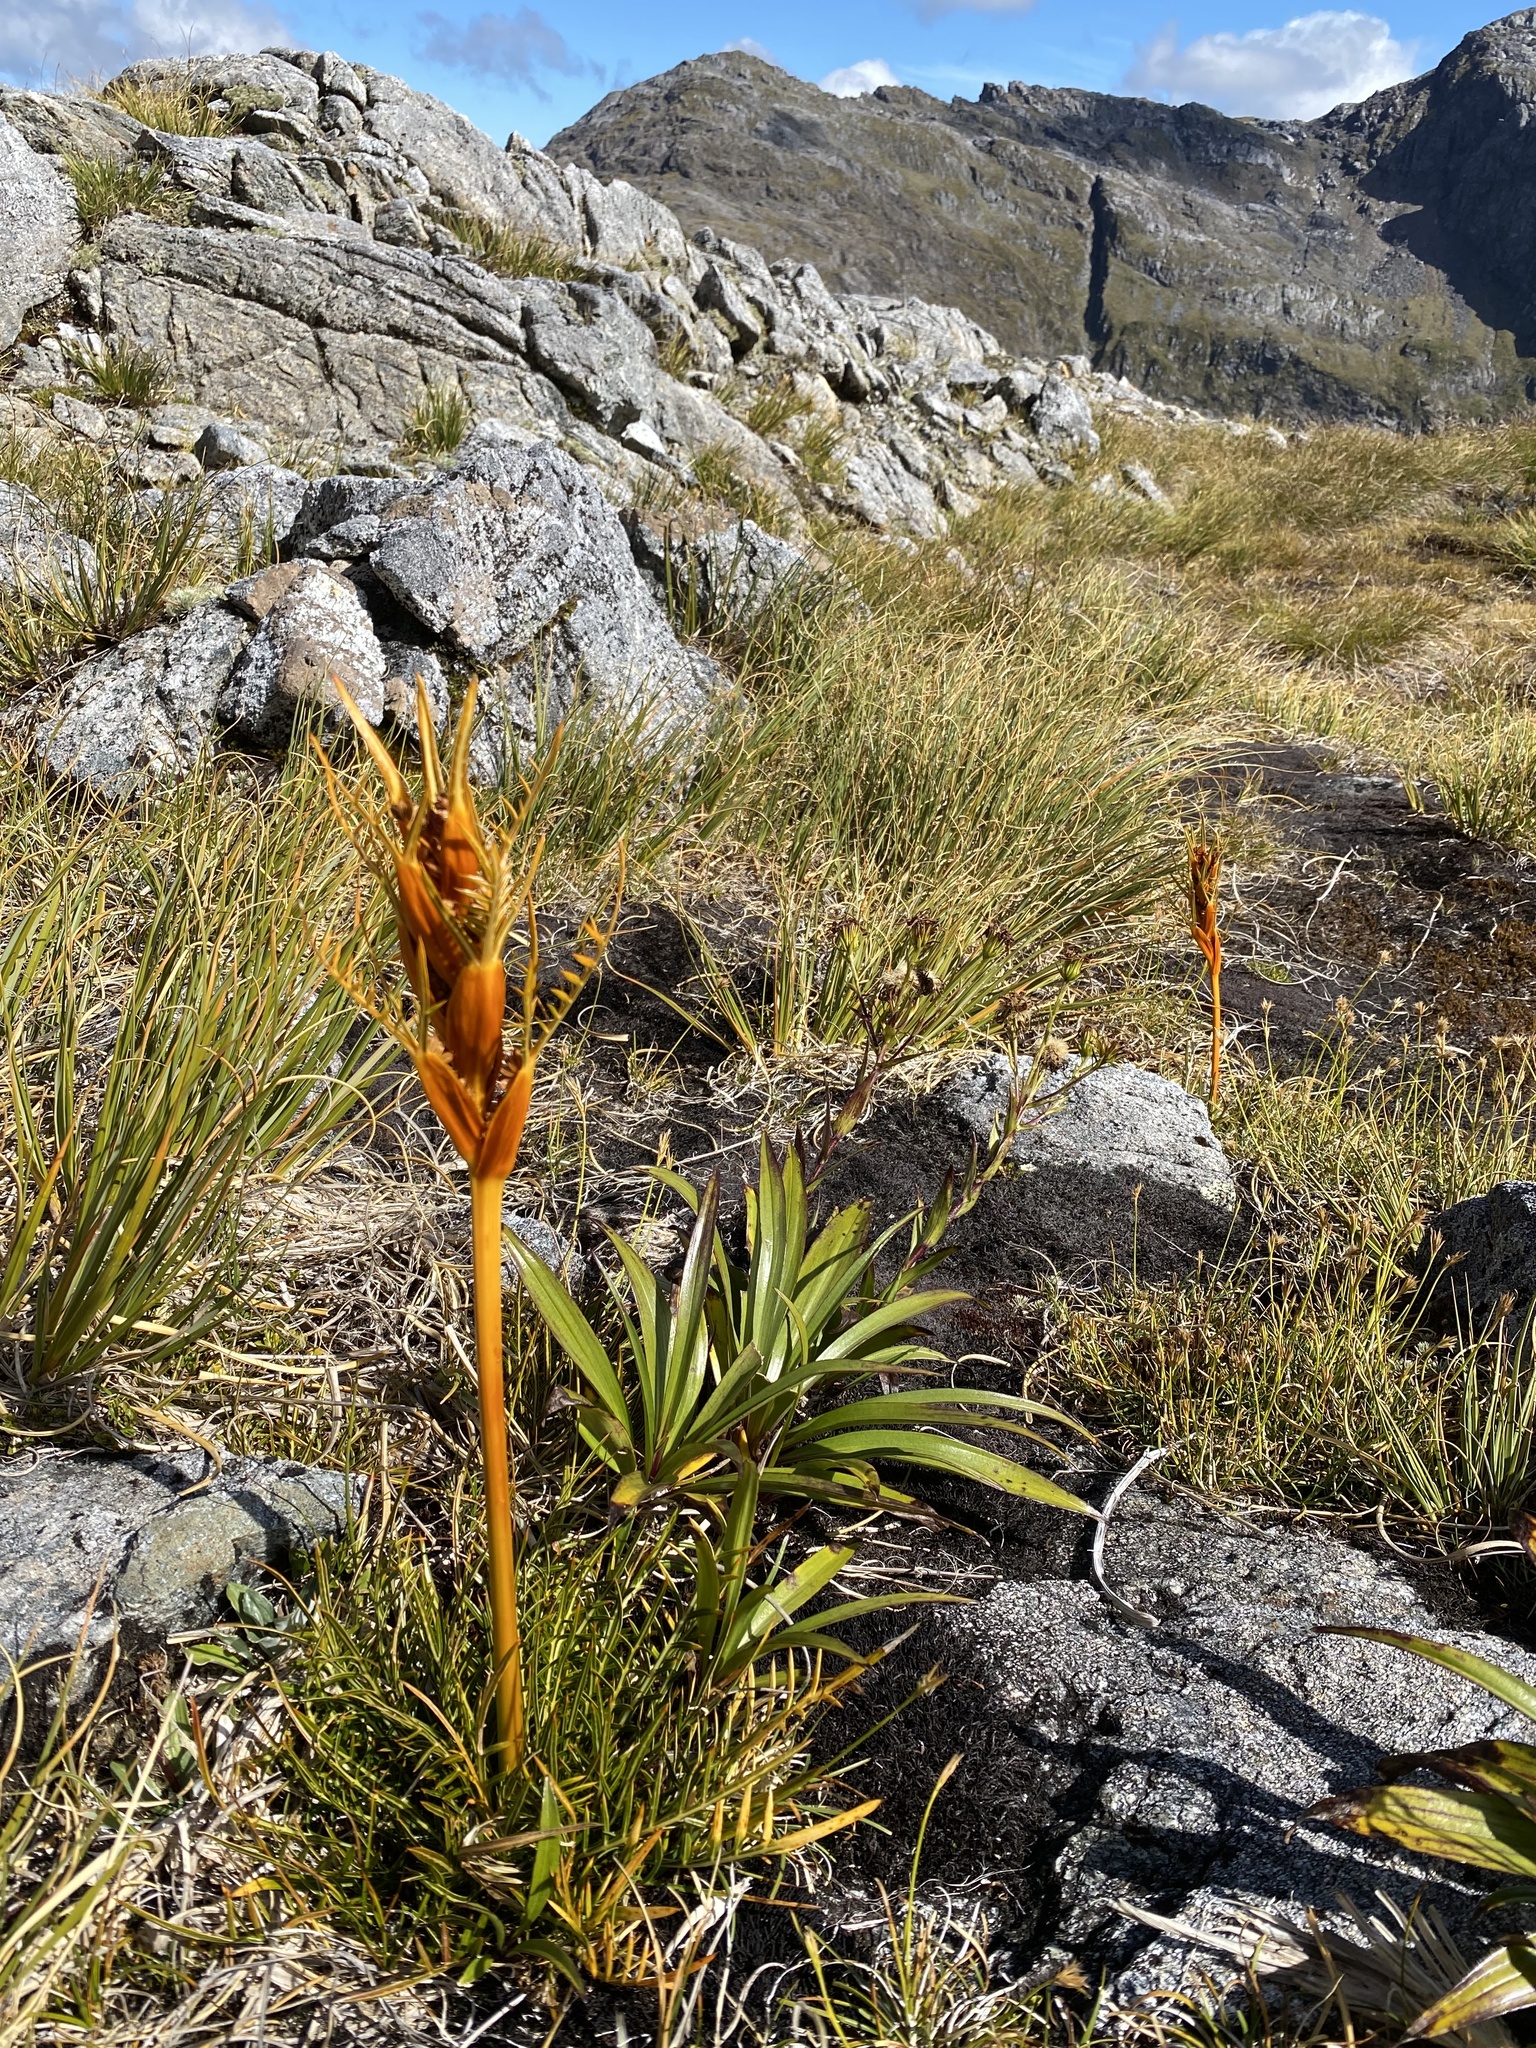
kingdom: Plantae
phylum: Tracheophyta
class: Magnoliopsida
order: Apiales
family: Apiaceae
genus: Aciphylla
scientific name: Aciphylla pinnatifida
